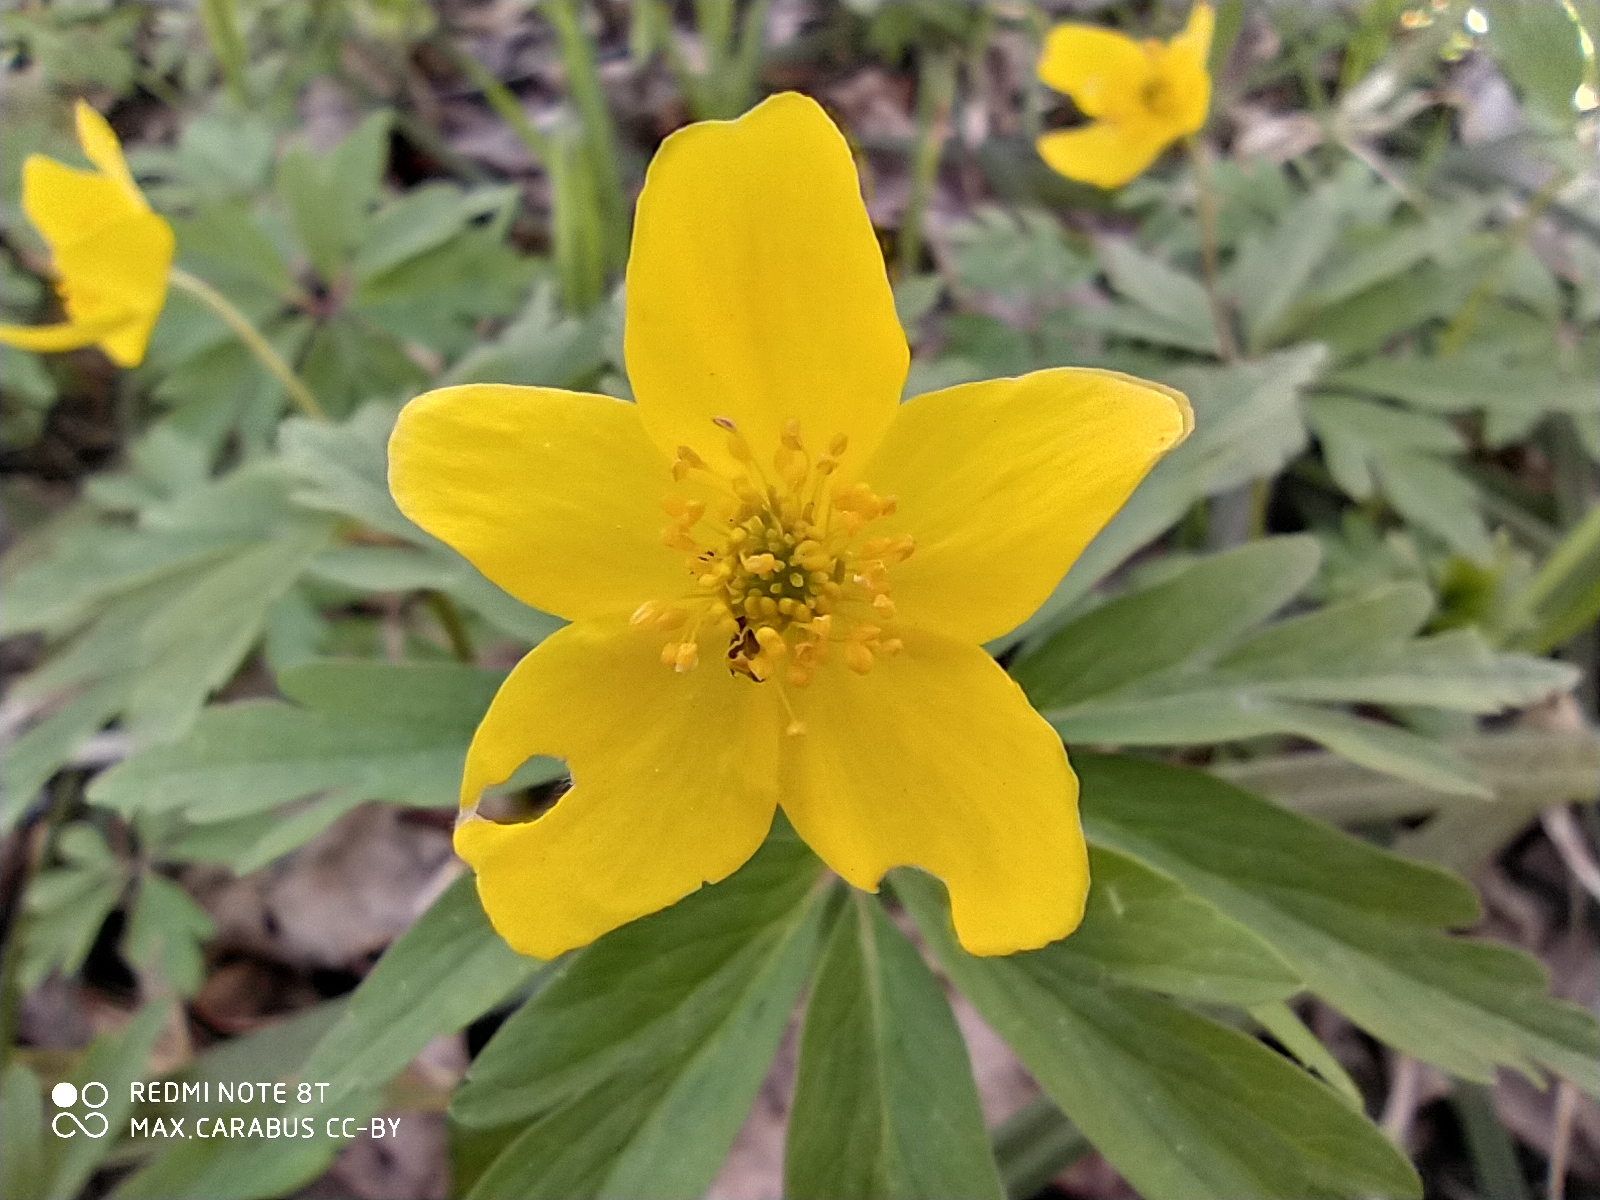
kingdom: Plantae
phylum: Tracheophyta
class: Magnoliopsida
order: Ranunculales
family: Ranunculaceae
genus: Anemone
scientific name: Anemone ranunculoides
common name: Yellow anemone
